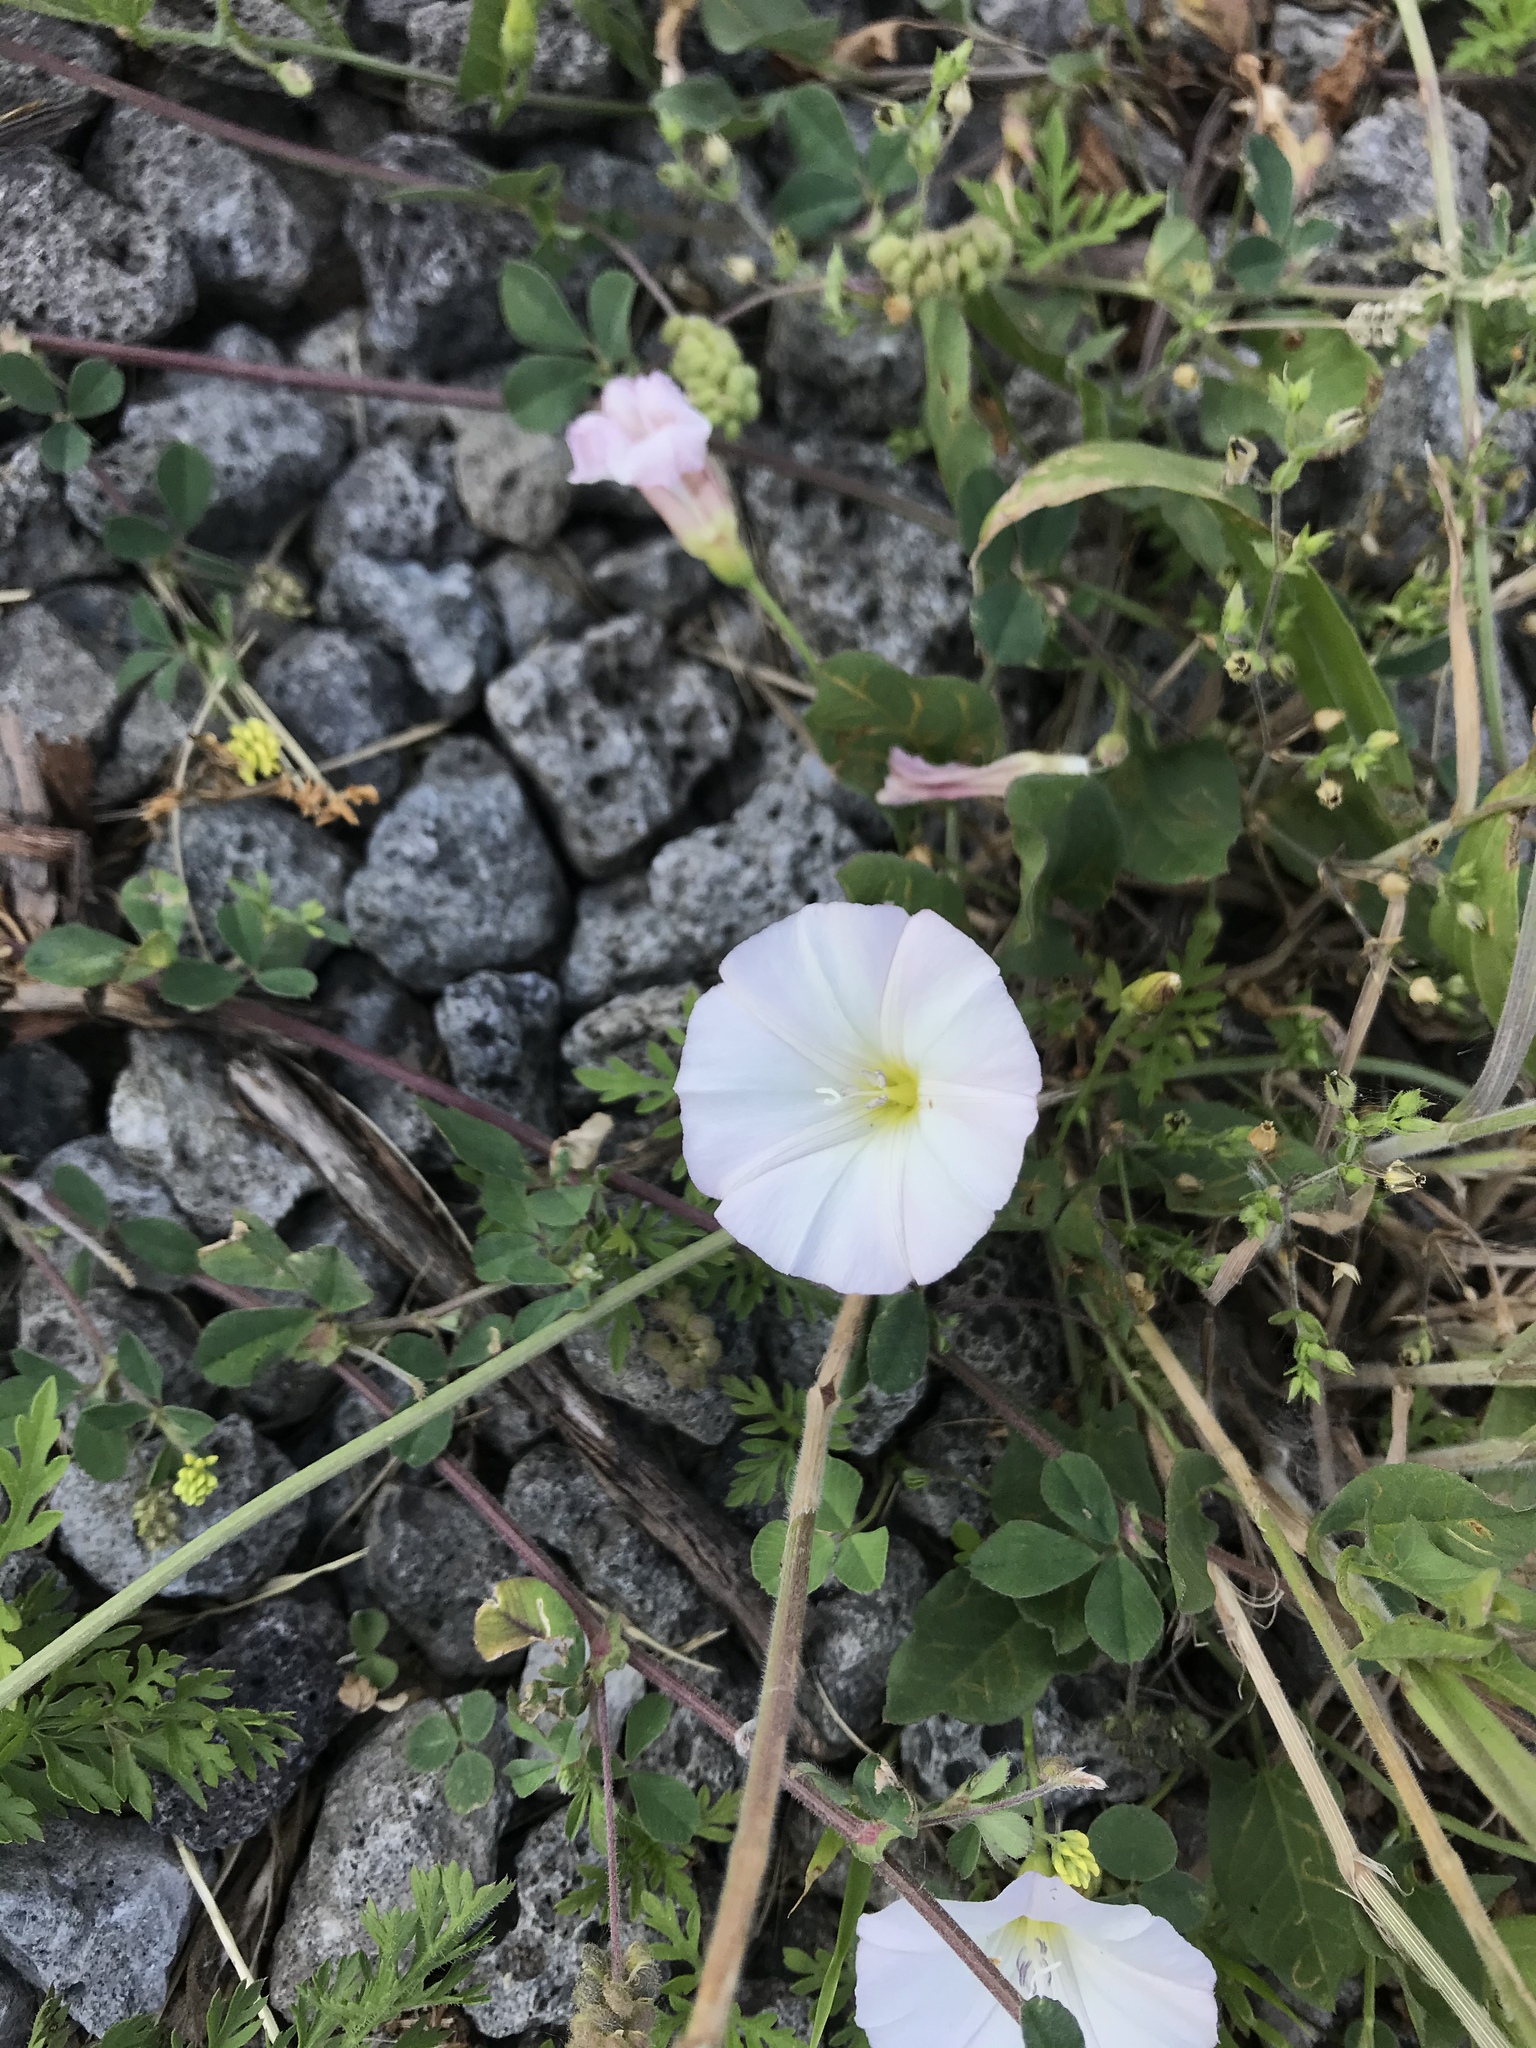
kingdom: Plantae
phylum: Tracheophyta
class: Magnoliopsida
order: Solanales
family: Convolvulaceae
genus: Convolvulus
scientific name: Convolvulus arvensis
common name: Field bindweed
